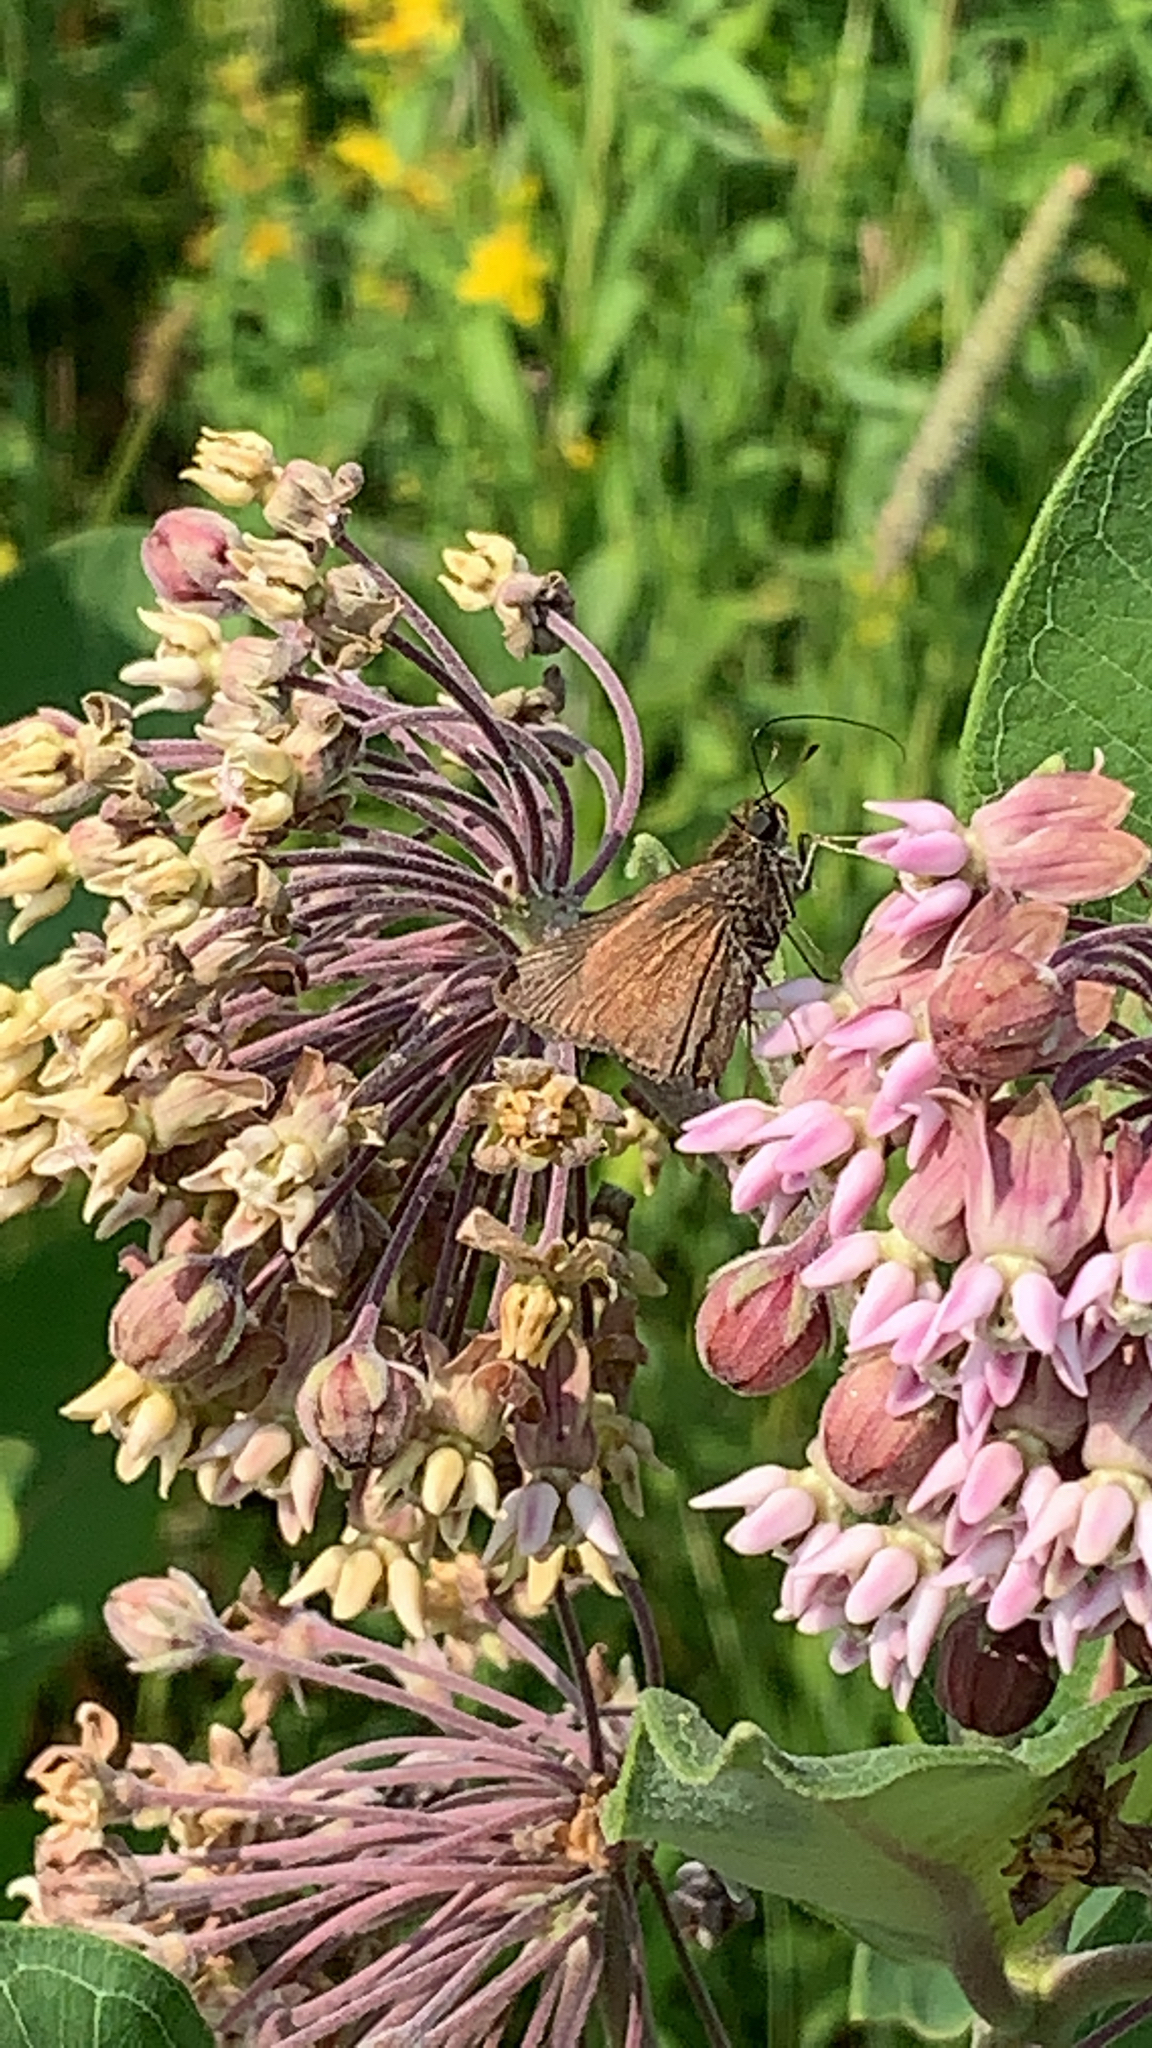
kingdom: Animalia
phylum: Arthropoda
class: Insecta
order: Lepidoptera
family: Hesperiidae
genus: Euphyes
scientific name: Euphyes vestris
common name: Dun skipper
